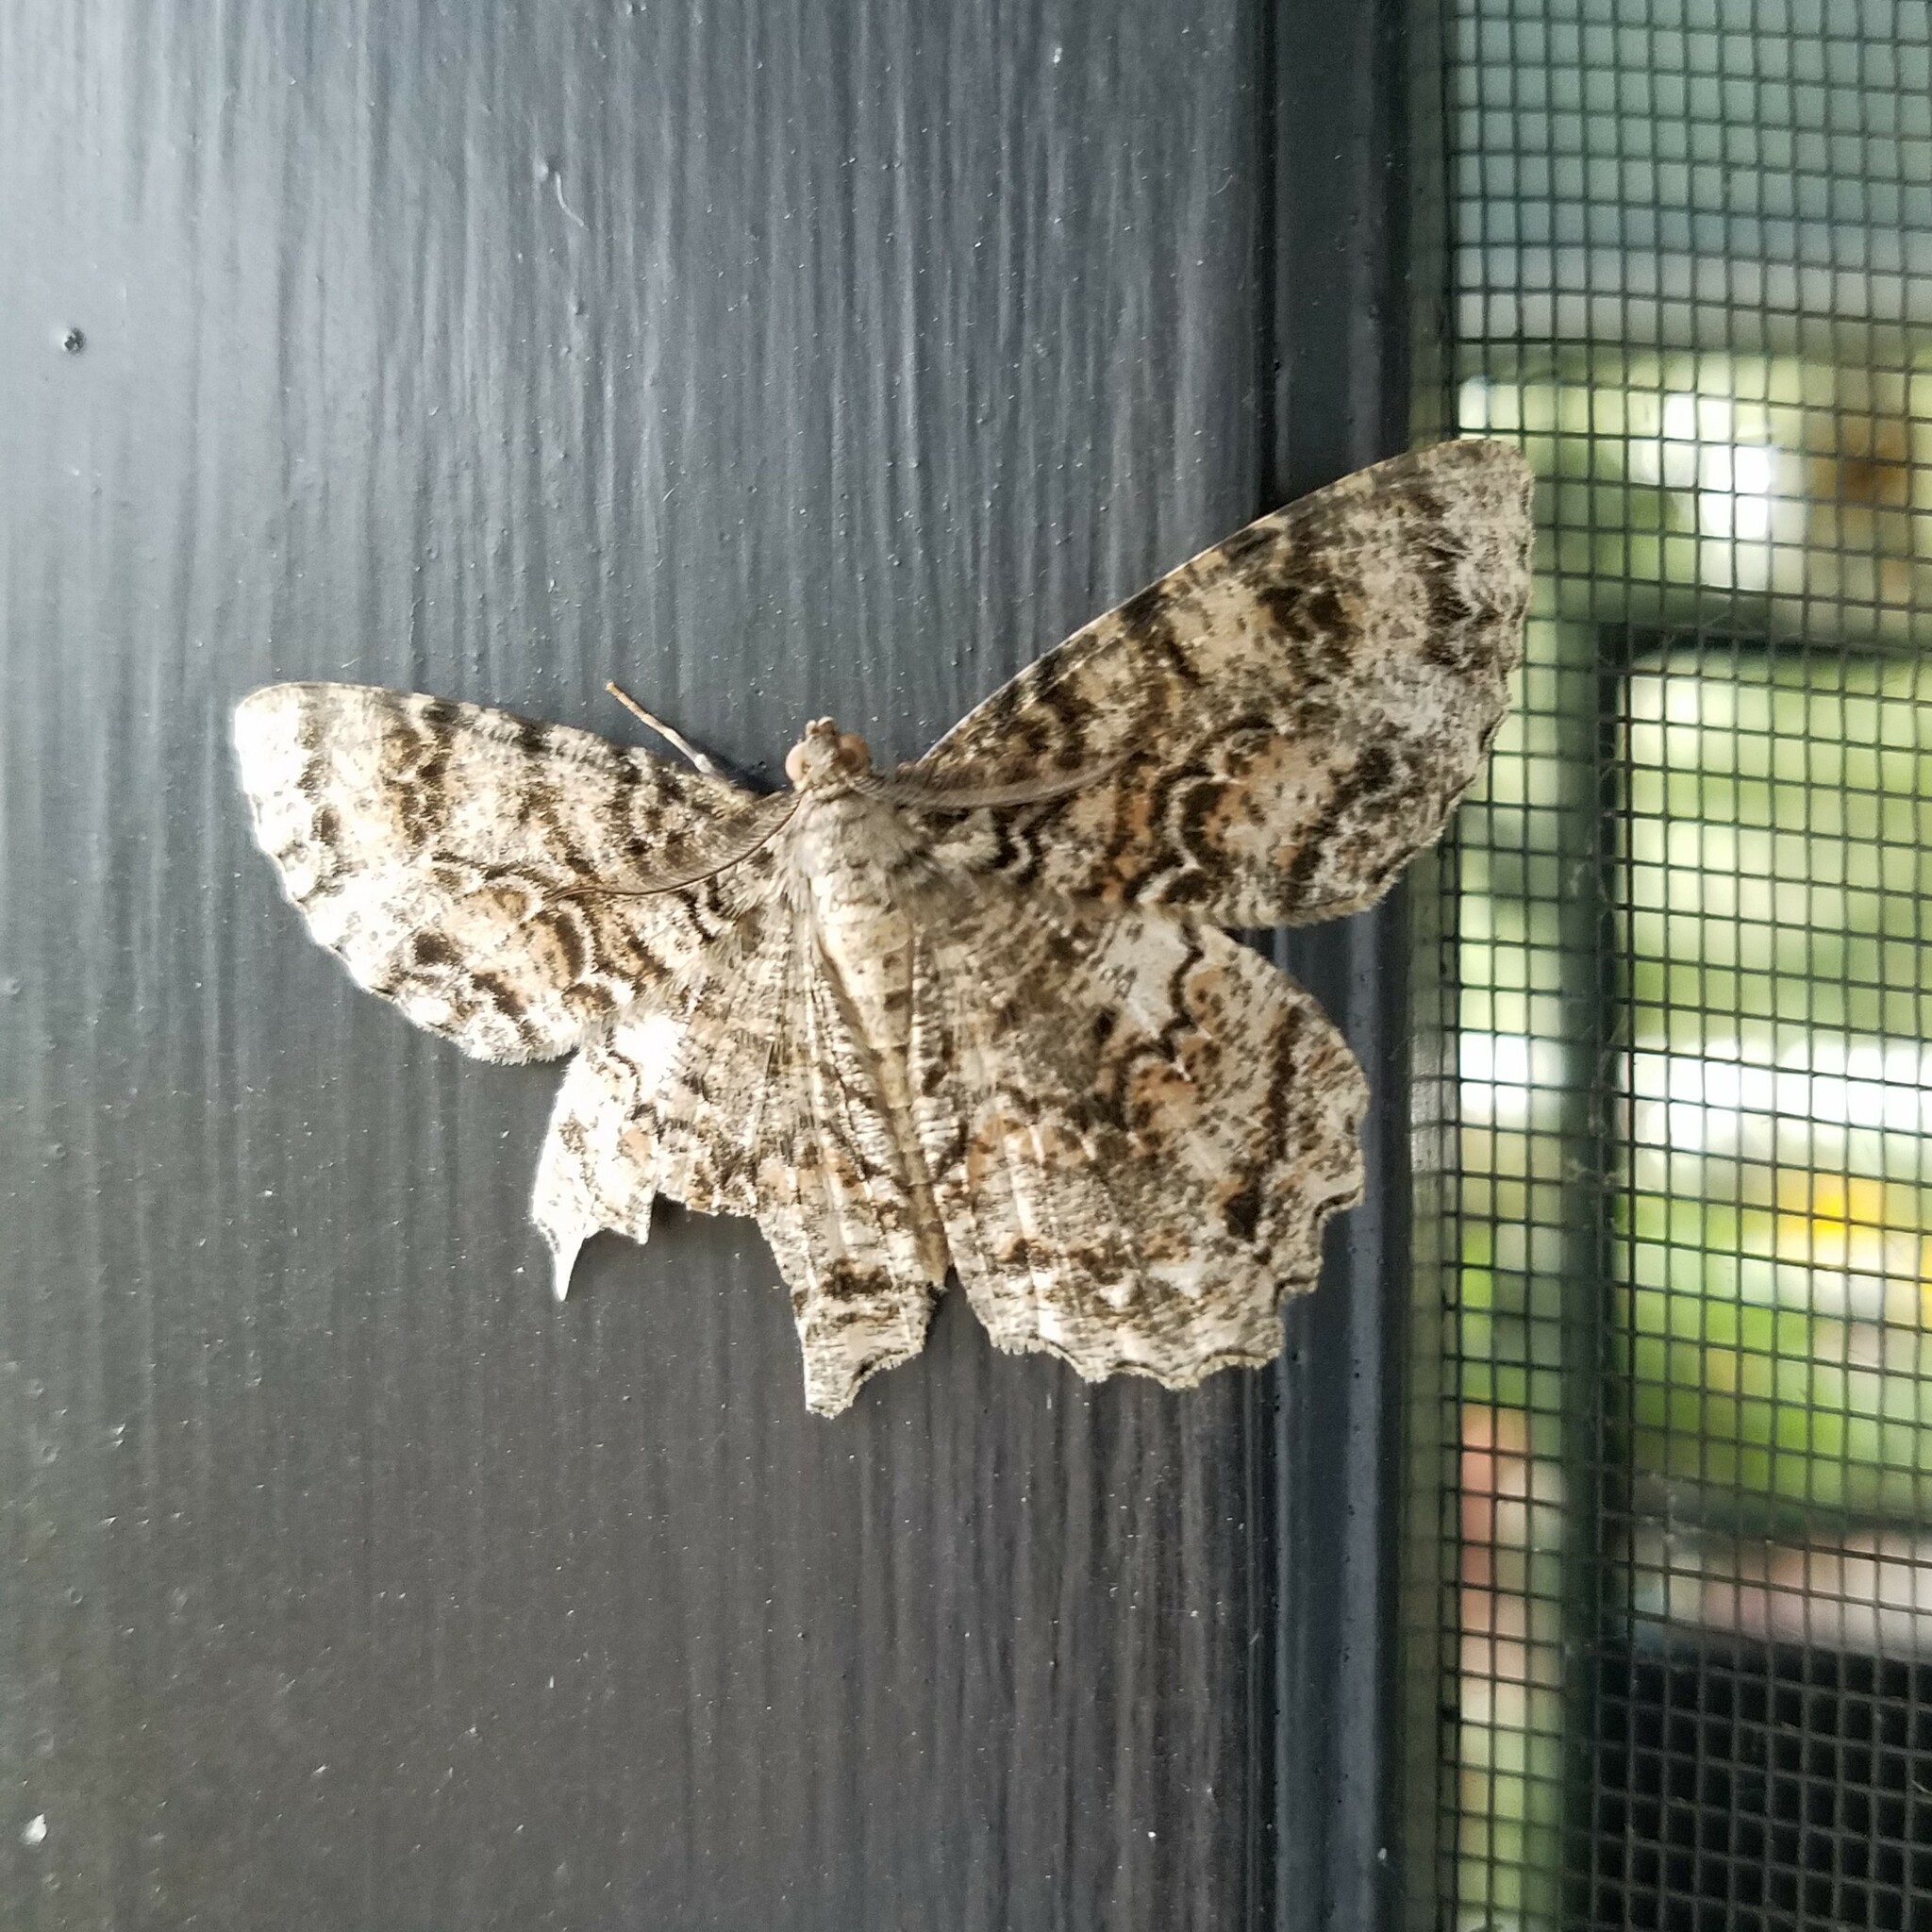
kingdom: Animalia
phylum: Arthropoda
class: Insecta
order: Lepidoptera
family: Geometridae
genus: Epimecis
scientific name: Epimecis hortaria
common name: Tulip-tree beauty
